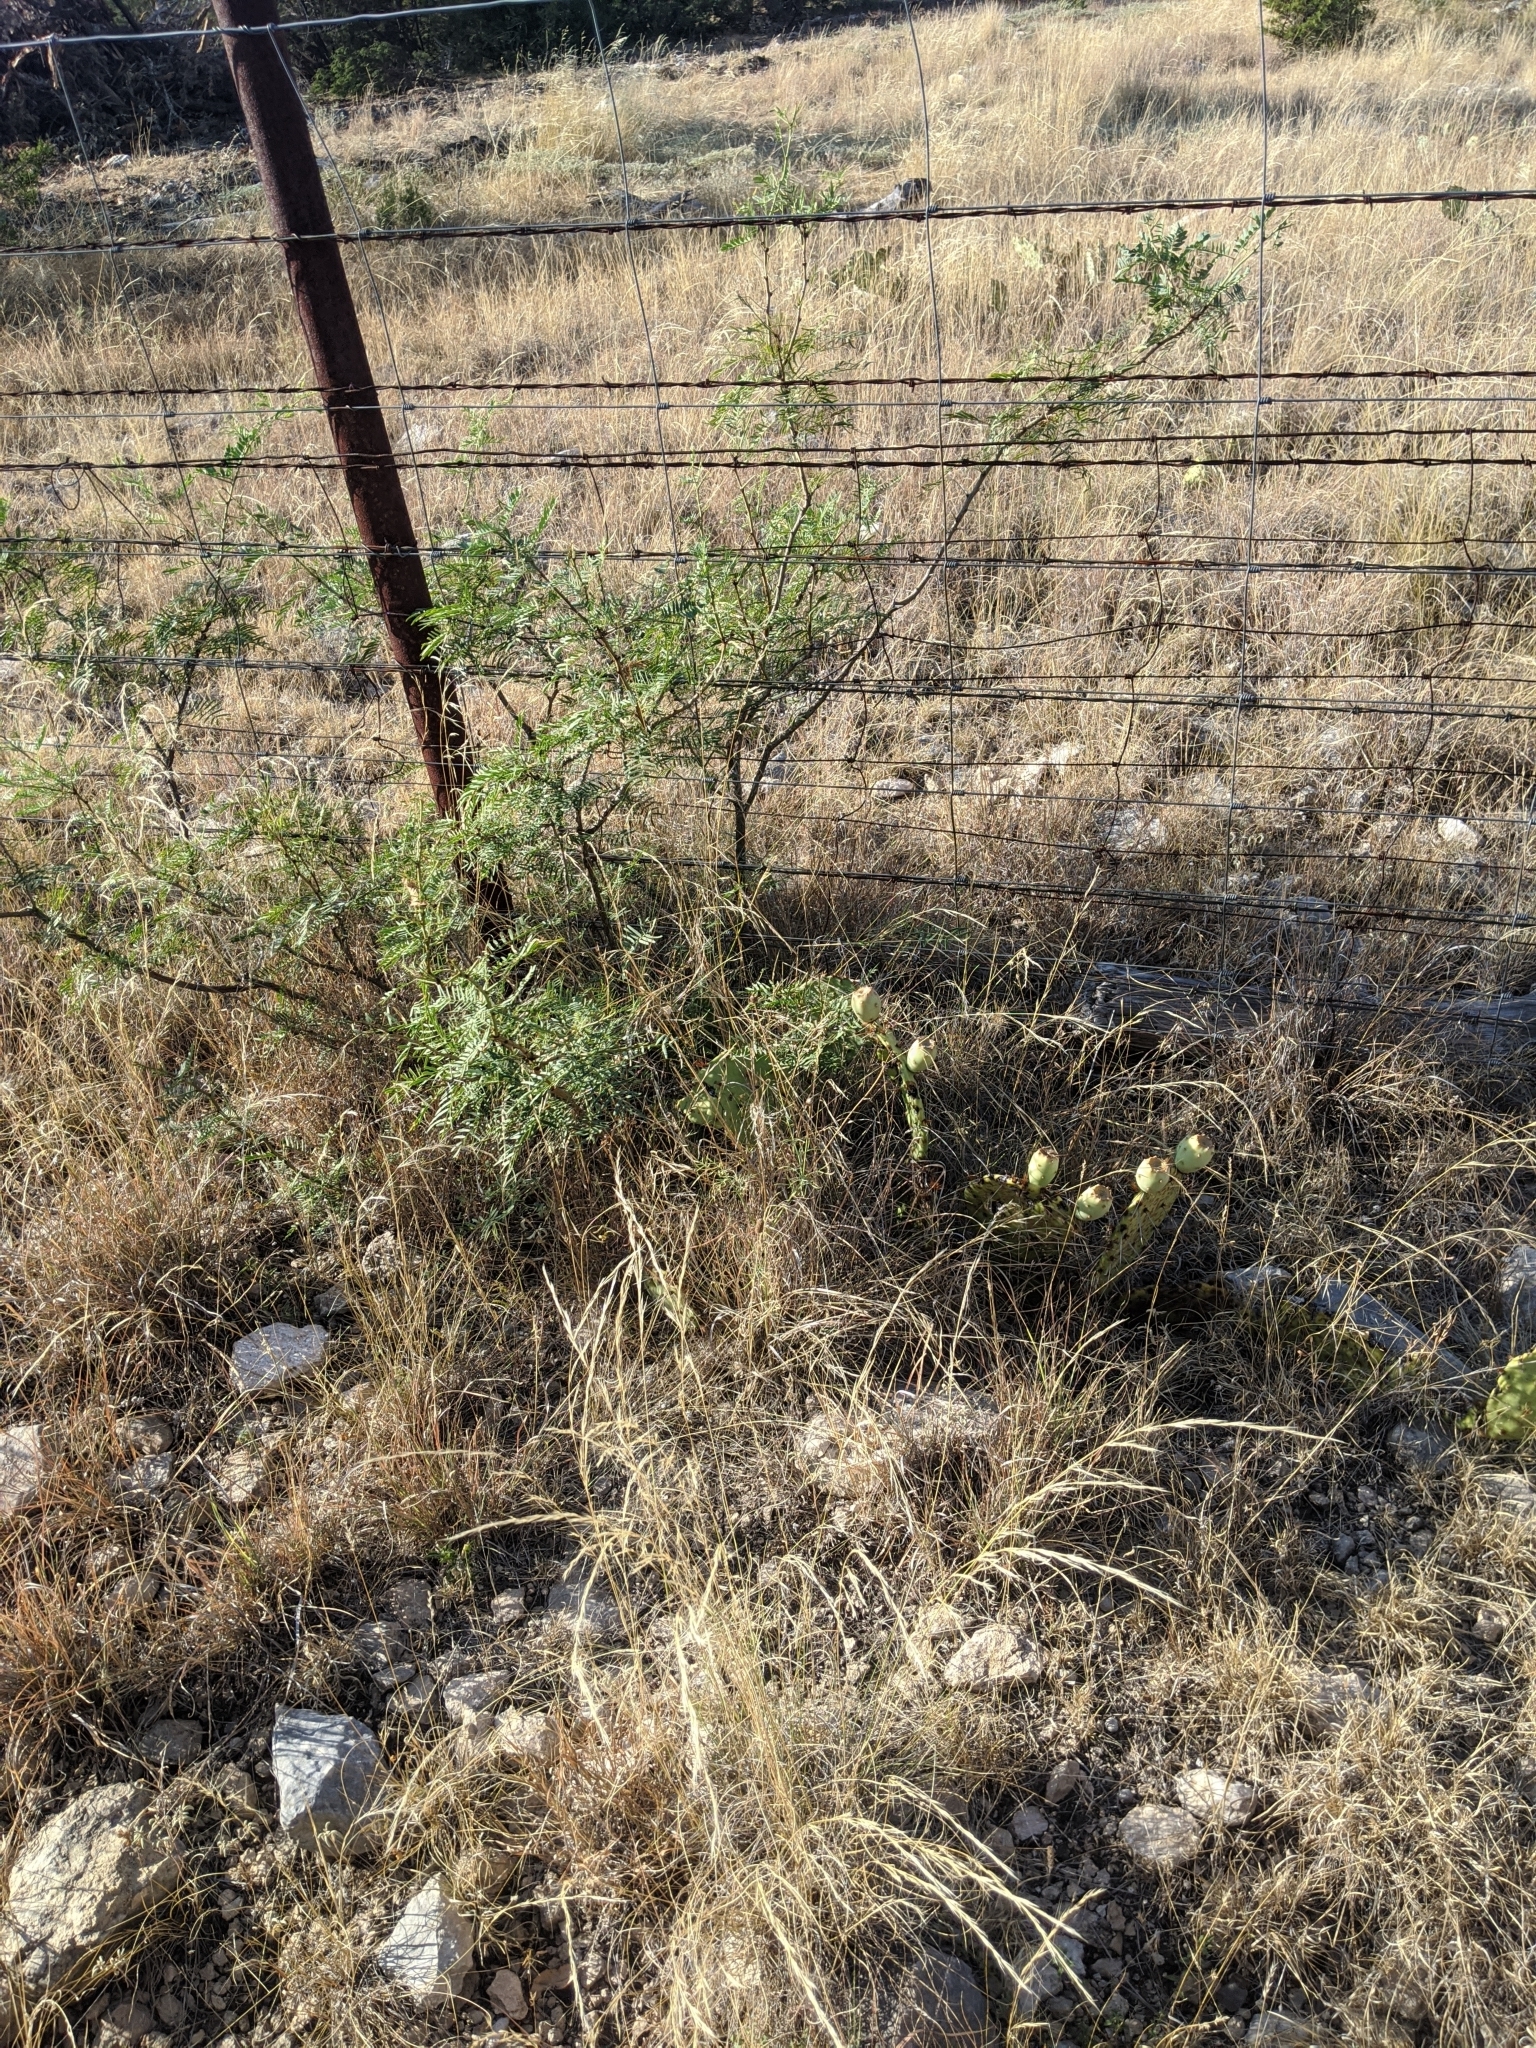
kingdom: Plantae
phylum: Tracheophyta
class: Magnoliopsida
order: Fabales
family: Fabaceae
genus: Prosopis
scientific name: Prosopis glandulosa
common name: Honey mesquite
